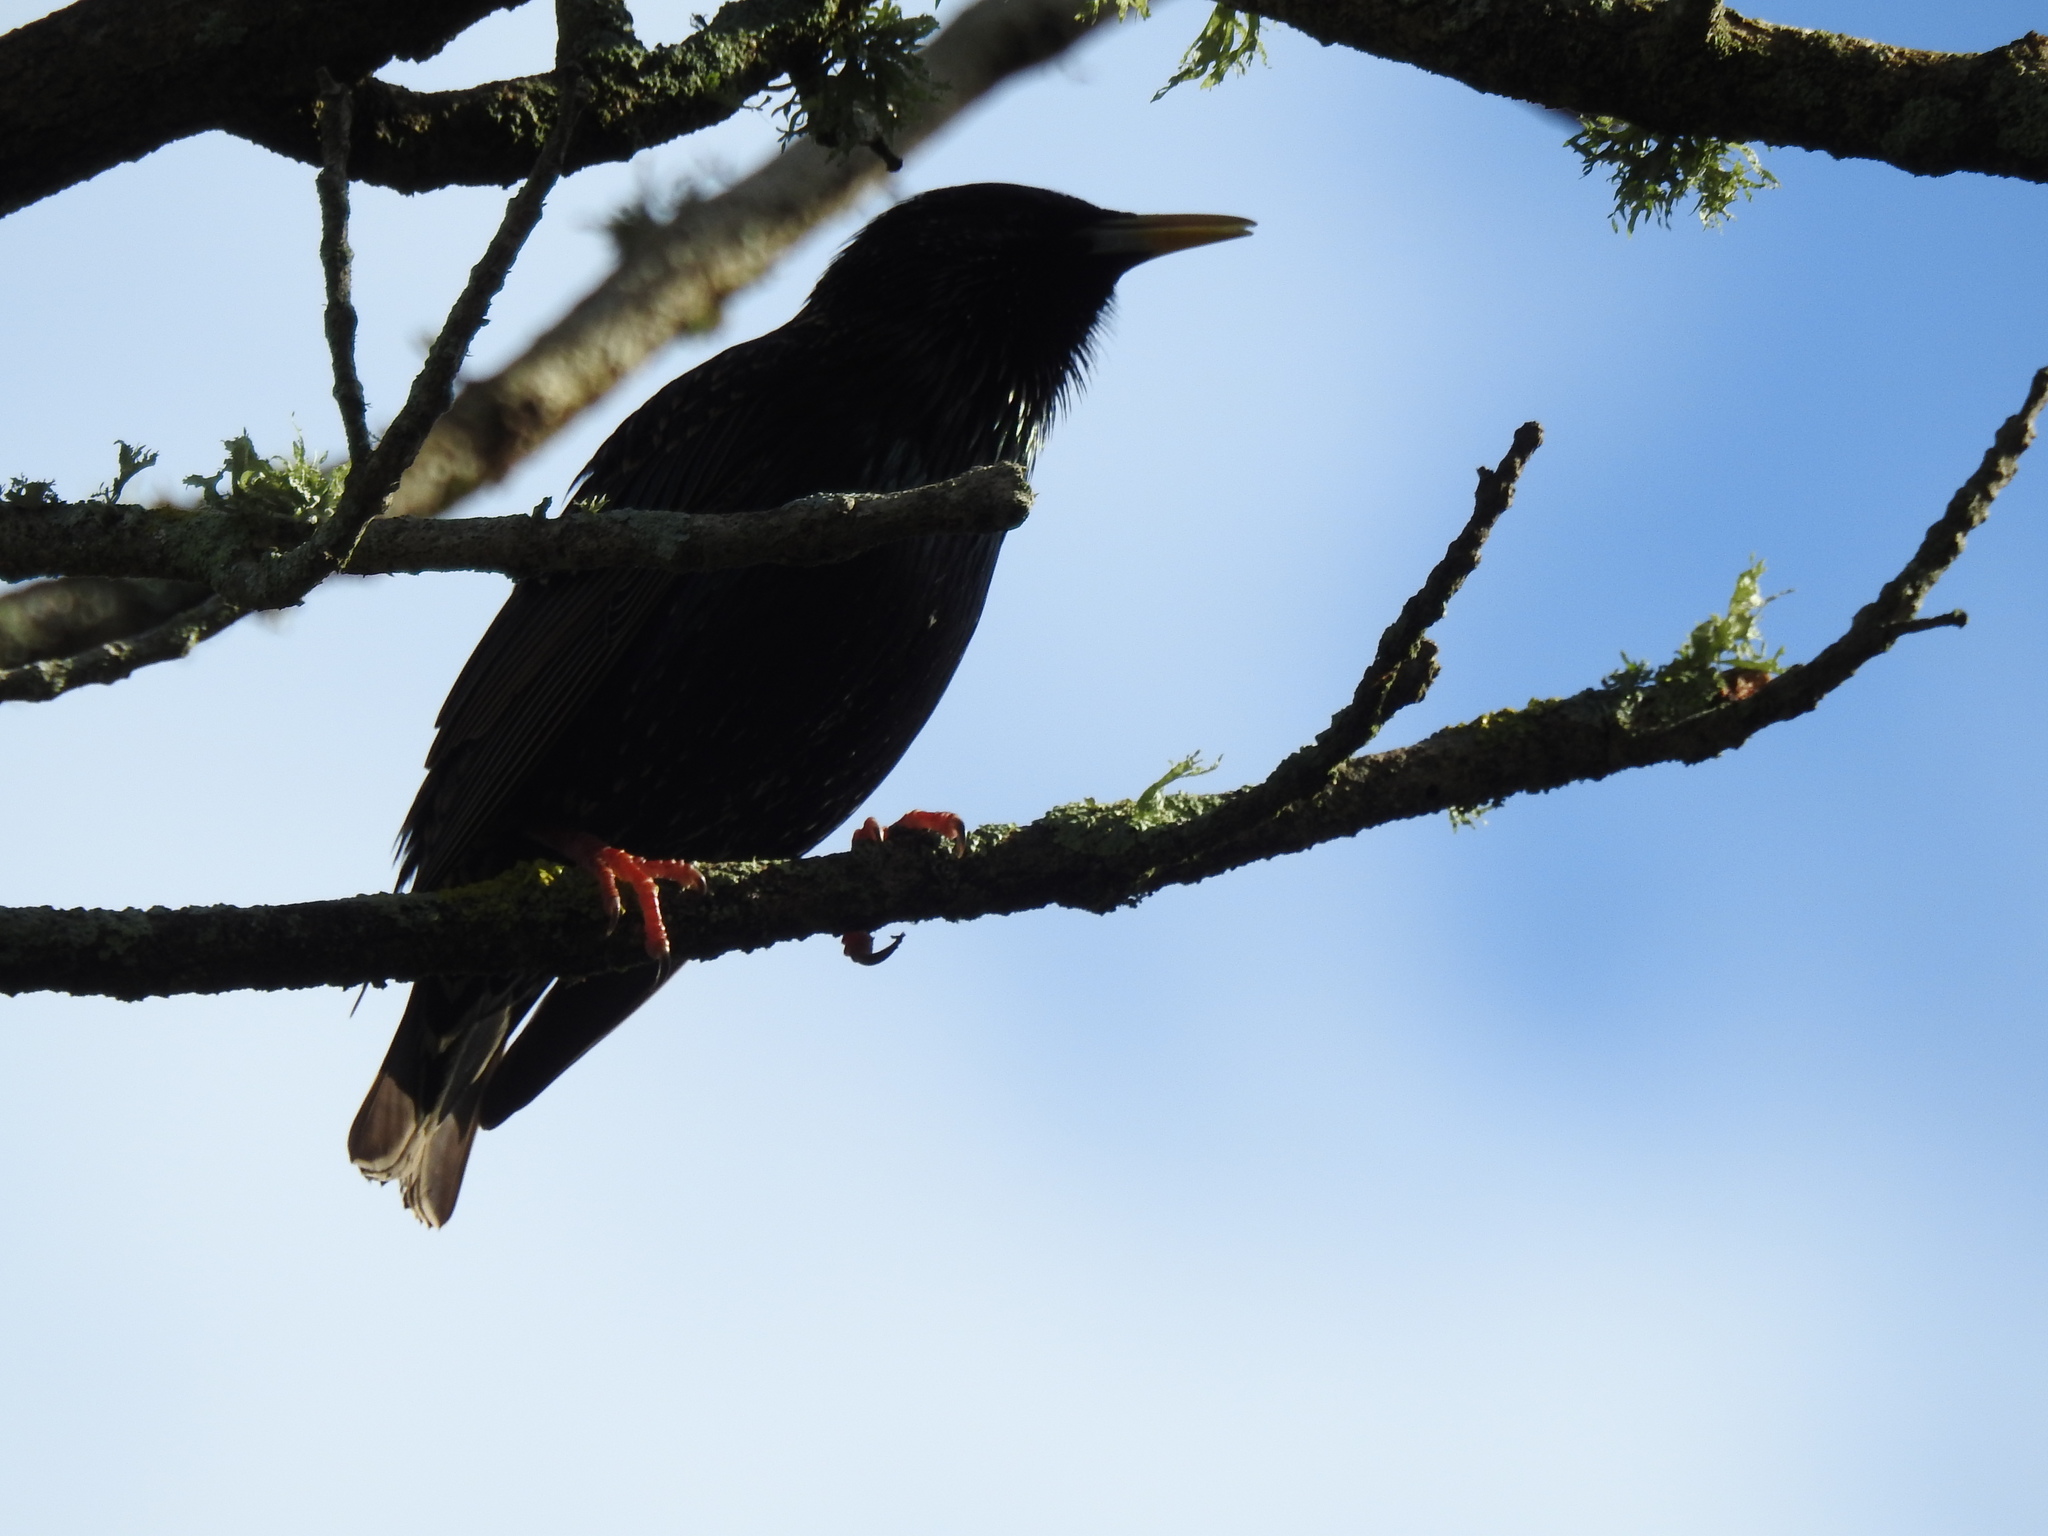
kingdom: Animalia
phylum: Chordata
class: Aves
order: Passeriformes
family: Sturnidae
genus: Sturnus
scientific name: Sturnus vulgaris
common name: Common starling
